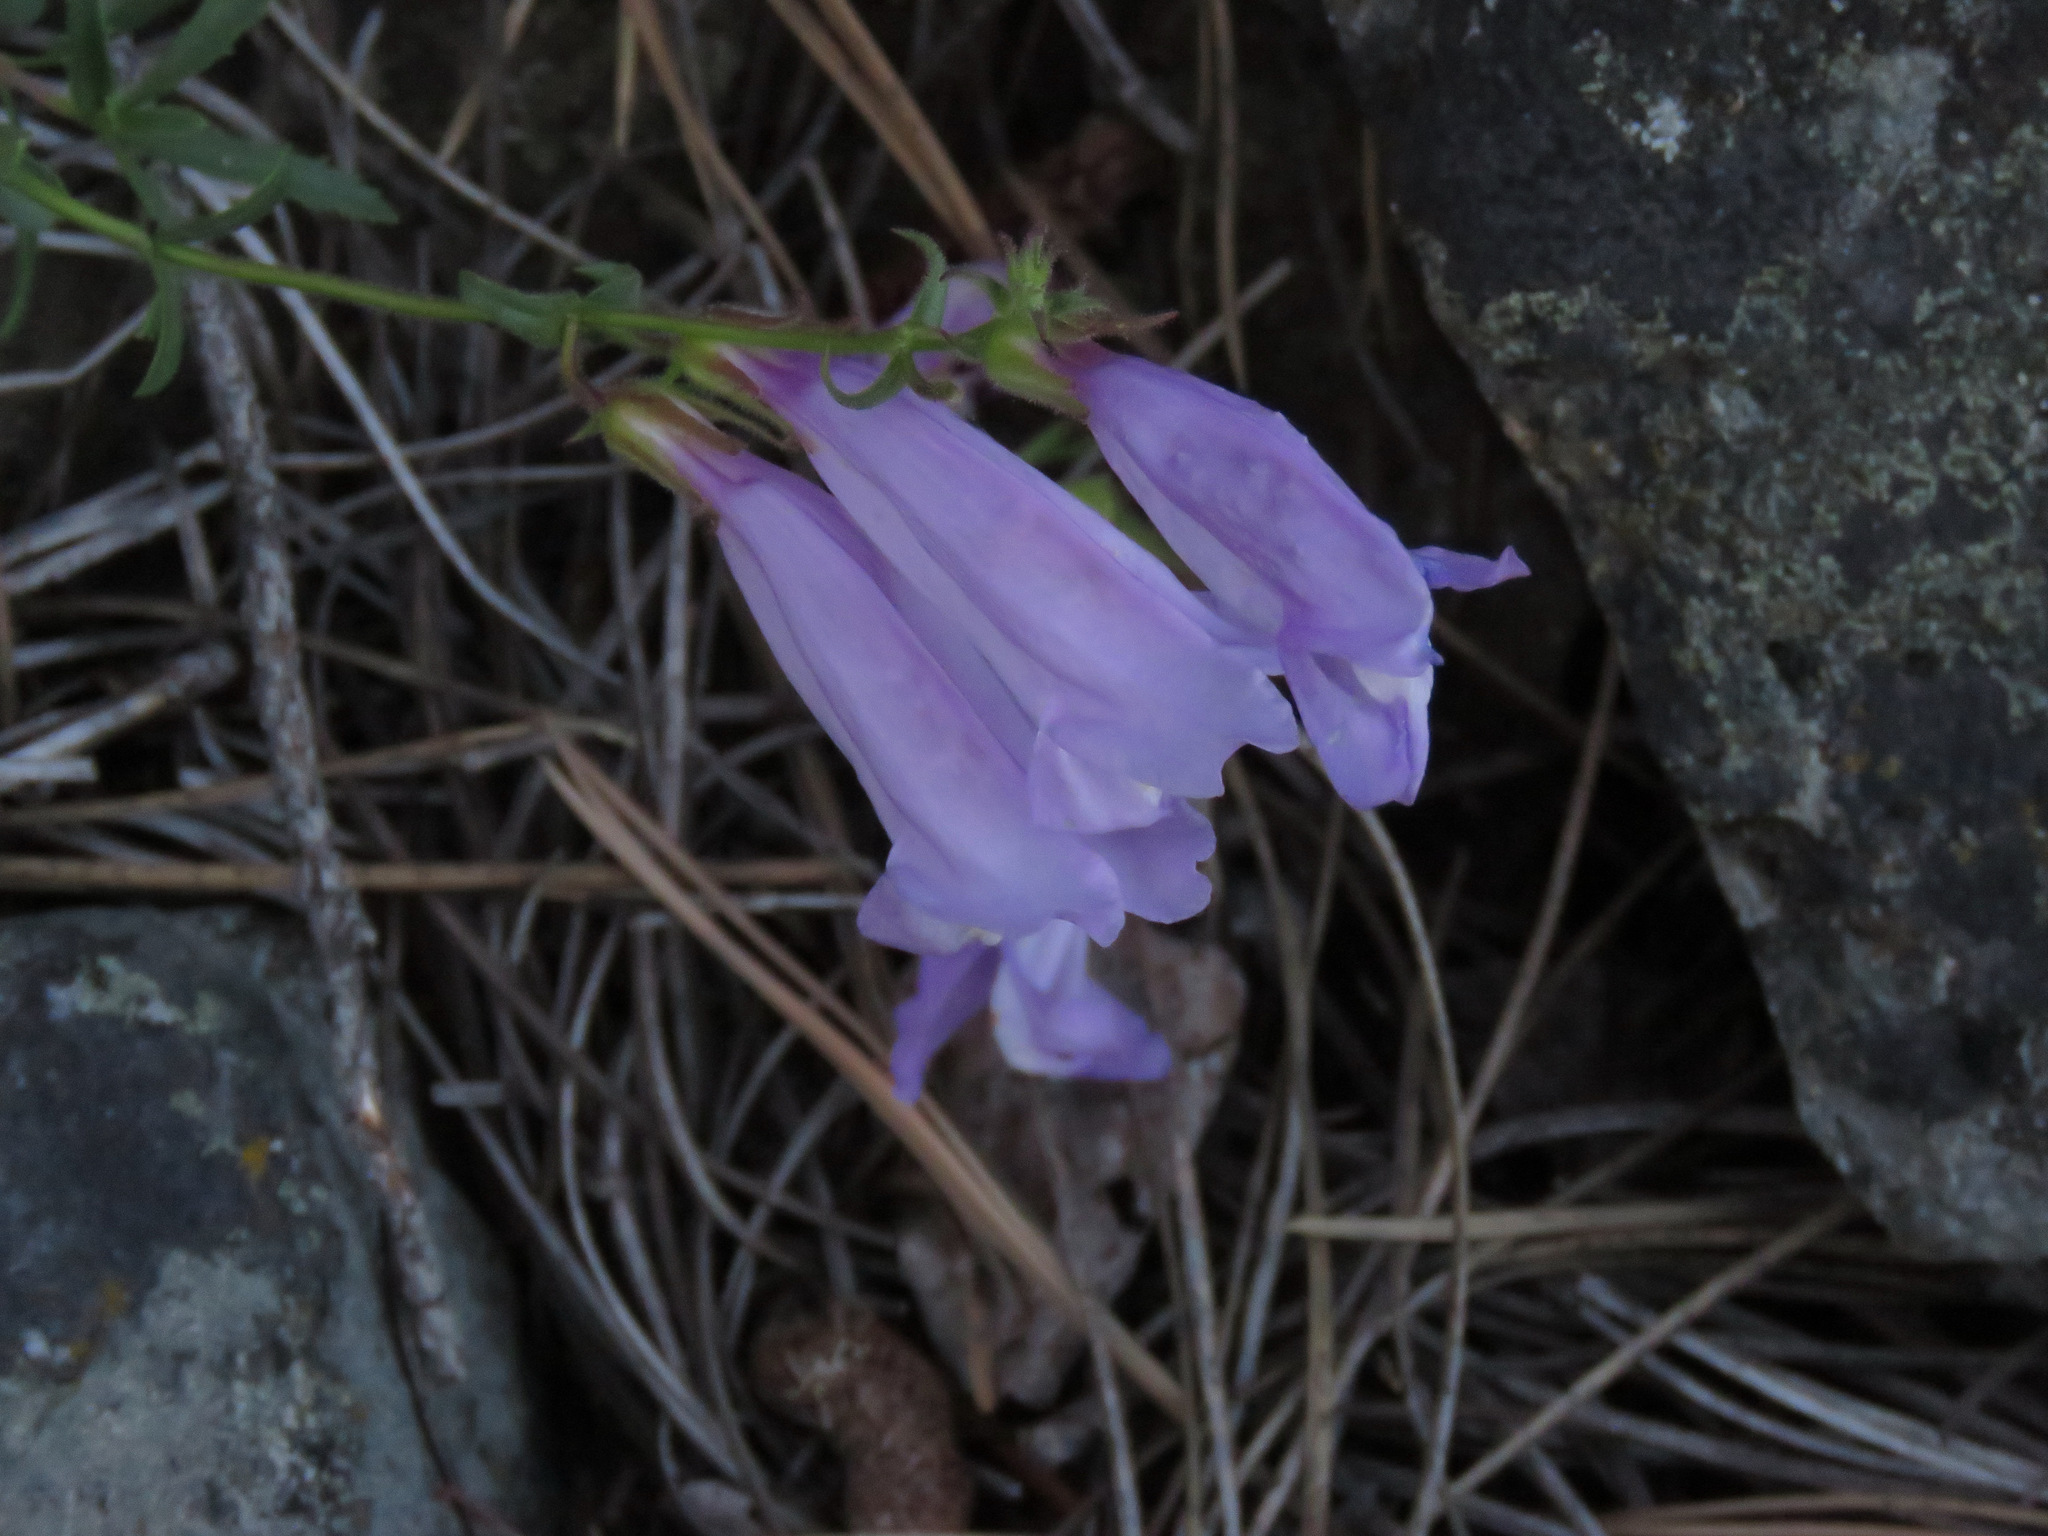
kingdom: Plantae
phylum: Tracheophyta
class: Magnoliopsida
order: Lamiales
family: Plantaginaceae
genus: Penstemon
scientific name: Penstemon fruticosus
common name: Bush penstemon
